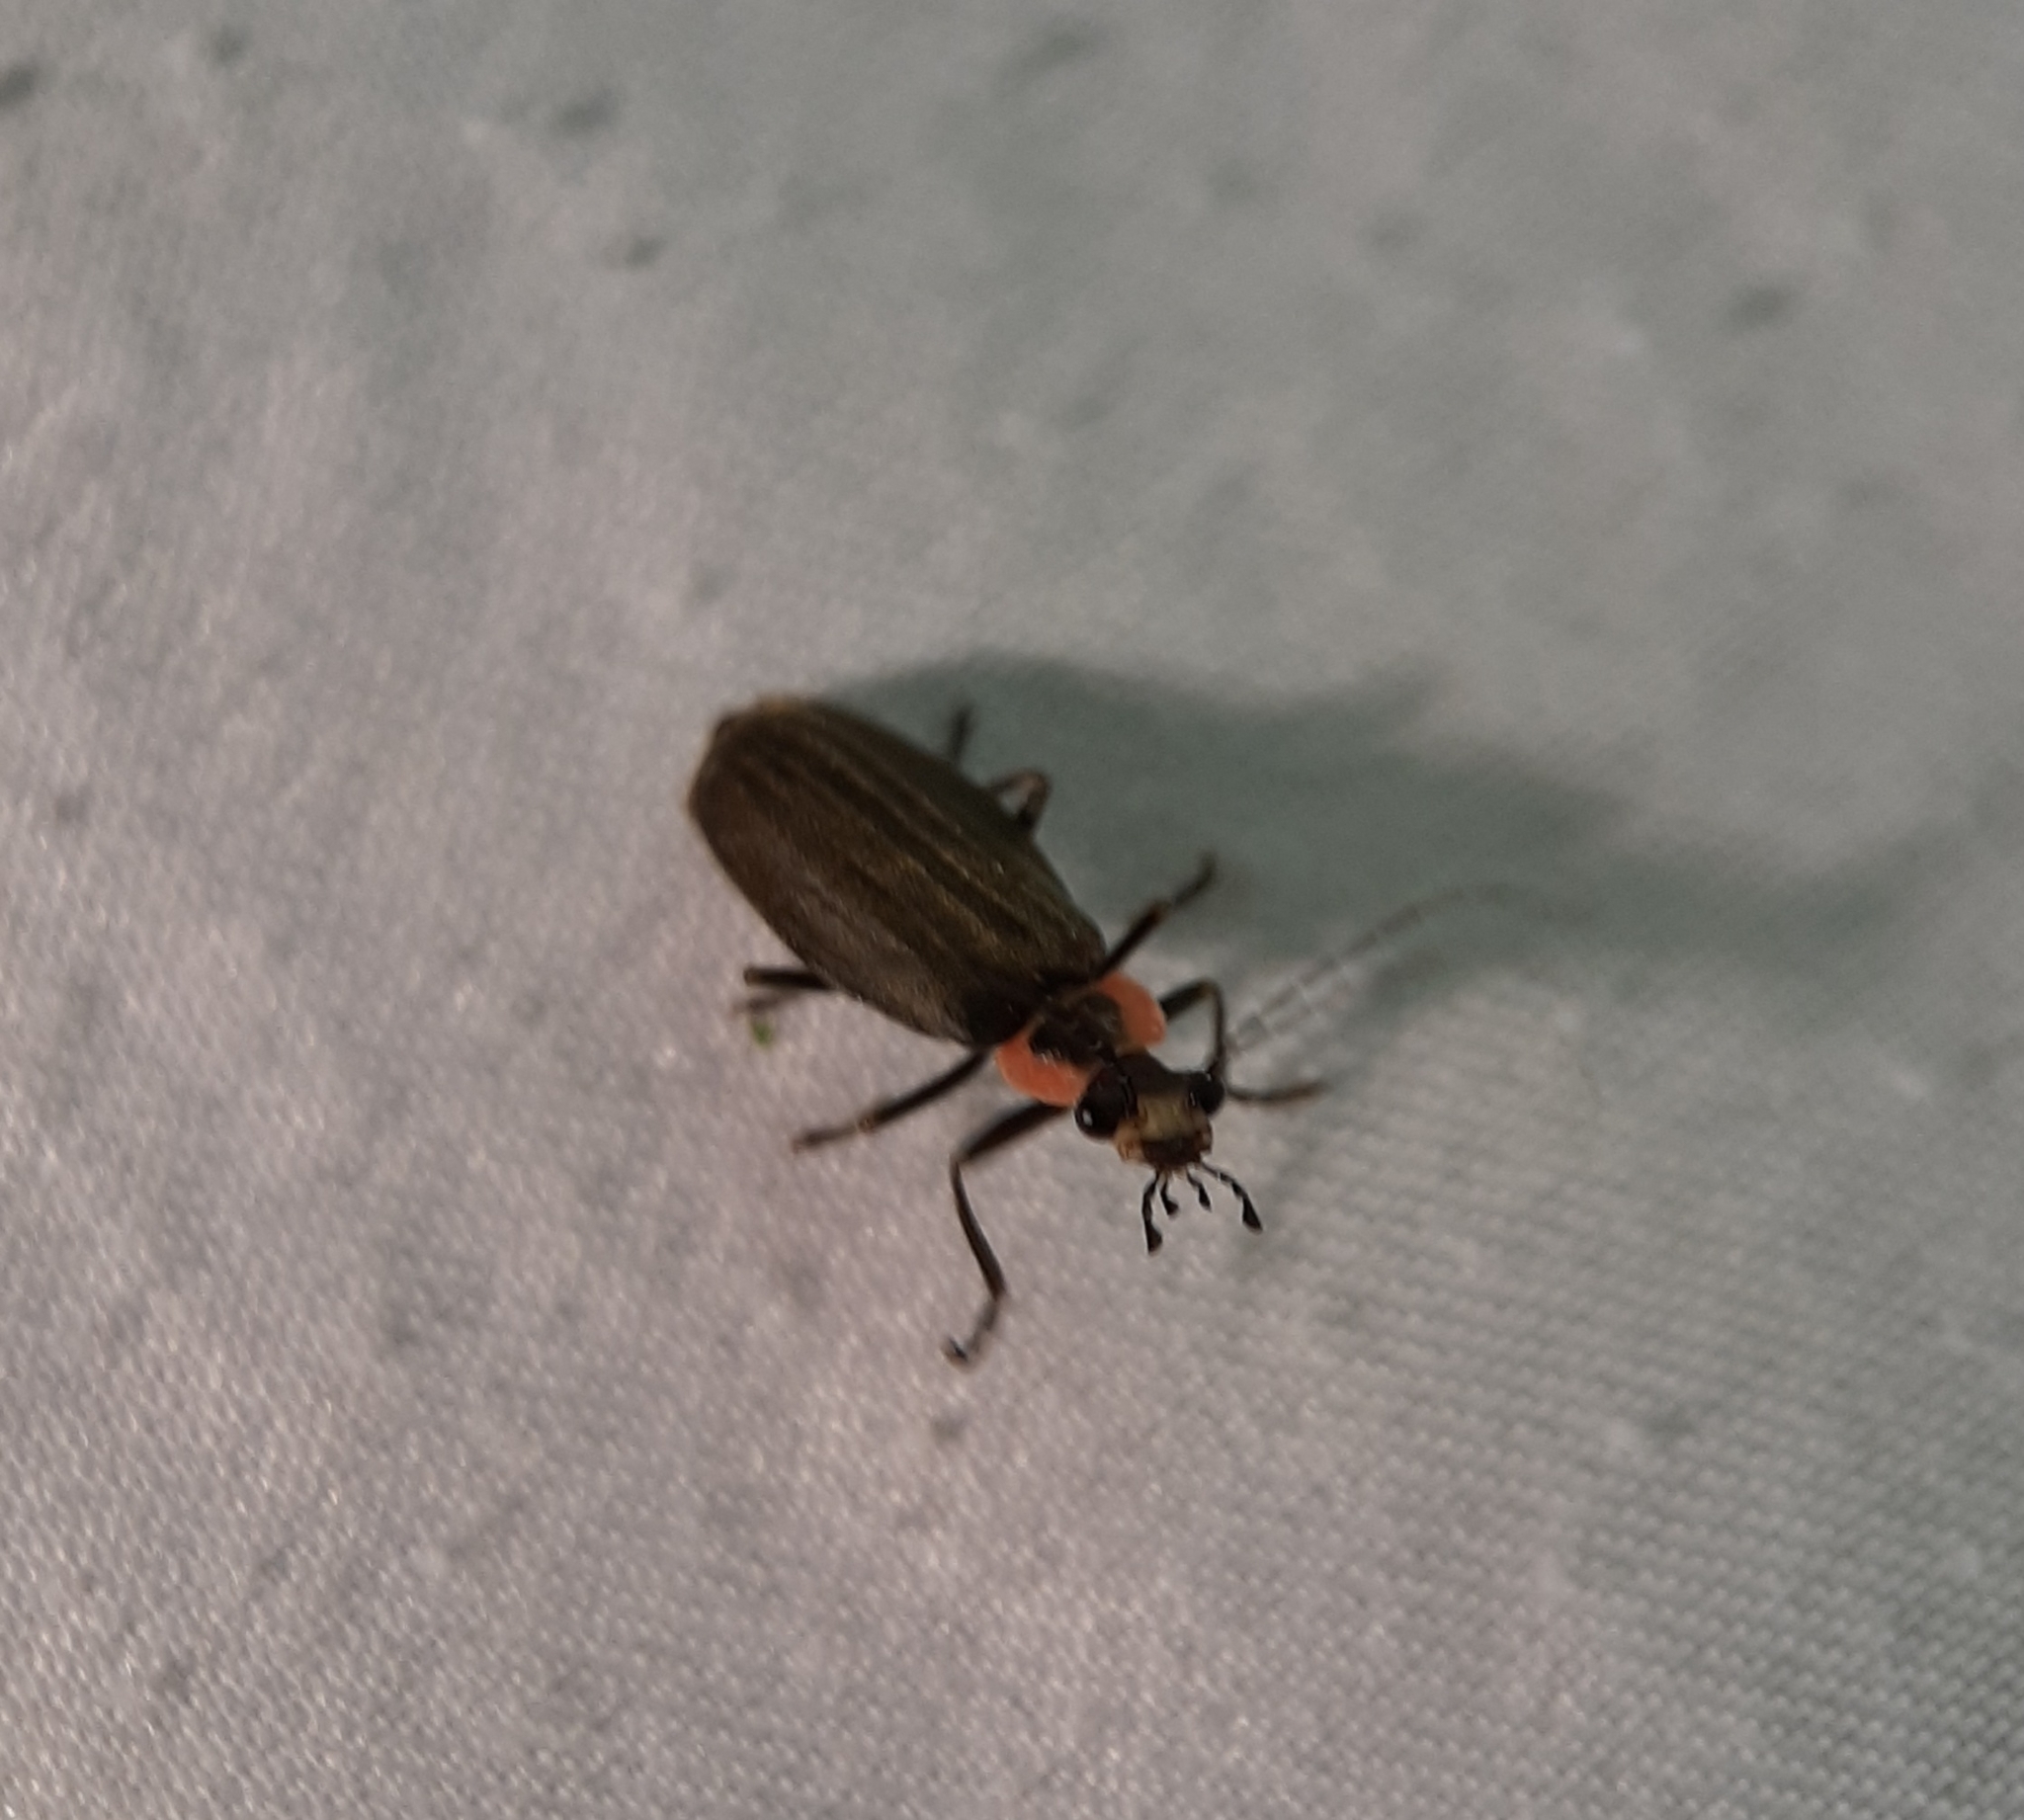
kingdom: Animalia
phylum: Arthropoda
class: Insecta
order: Coleoptera
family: Cantharidae
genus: Podabrus
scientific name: Podabrus tricostatus
